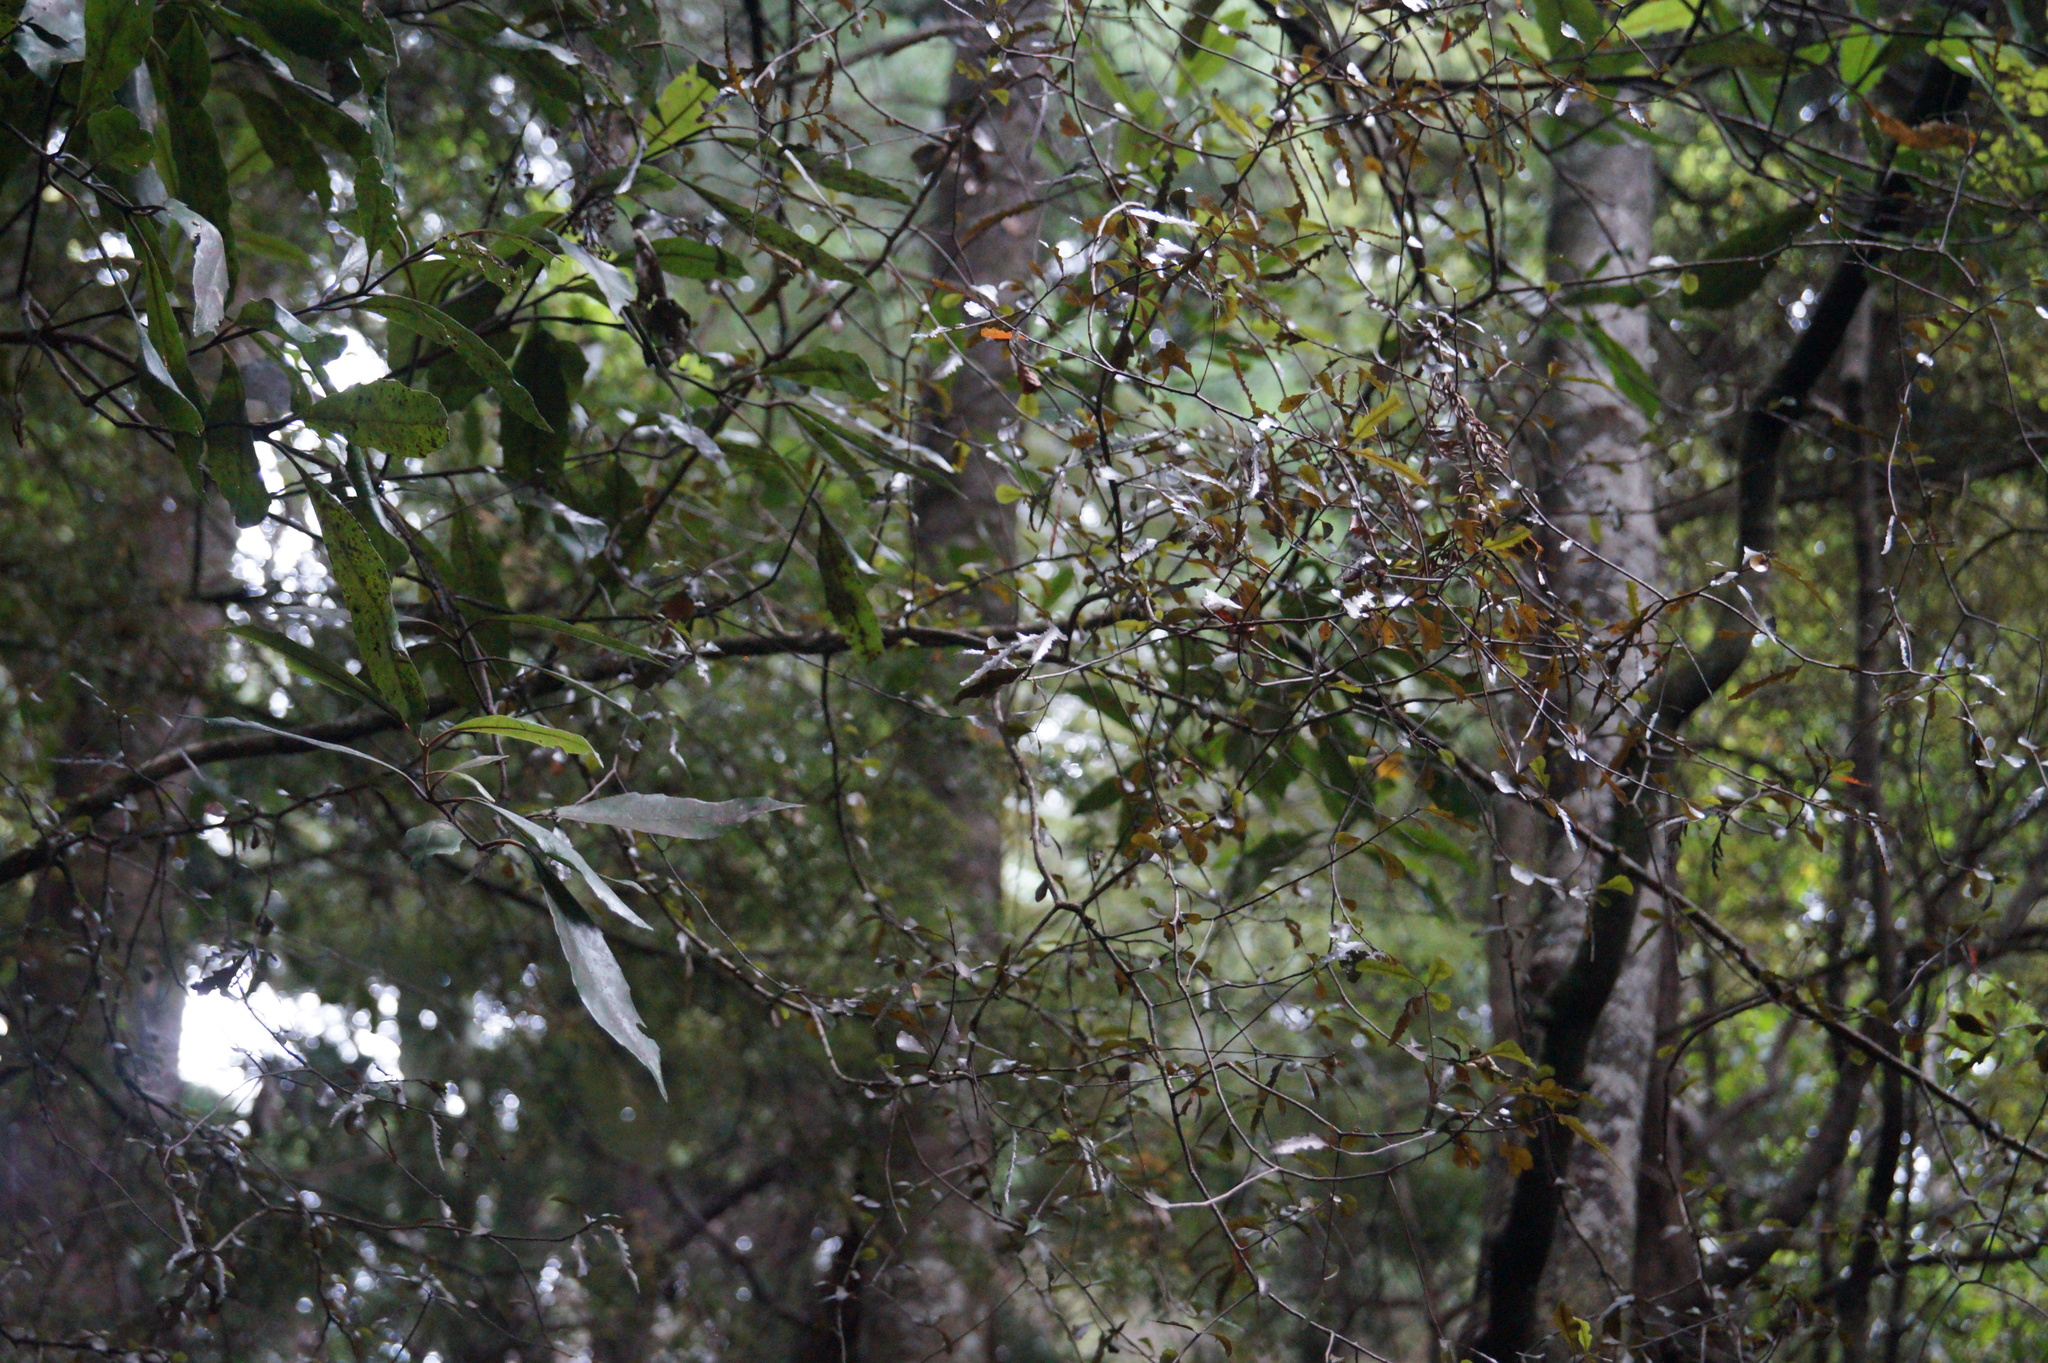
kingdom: Plantae
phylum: Tracheophyta
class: Magnoliopsida
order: Oxalidales
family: Elaeocarpaceae
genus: Elaeocarpus
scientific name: Elaeocarpus hookerianus
